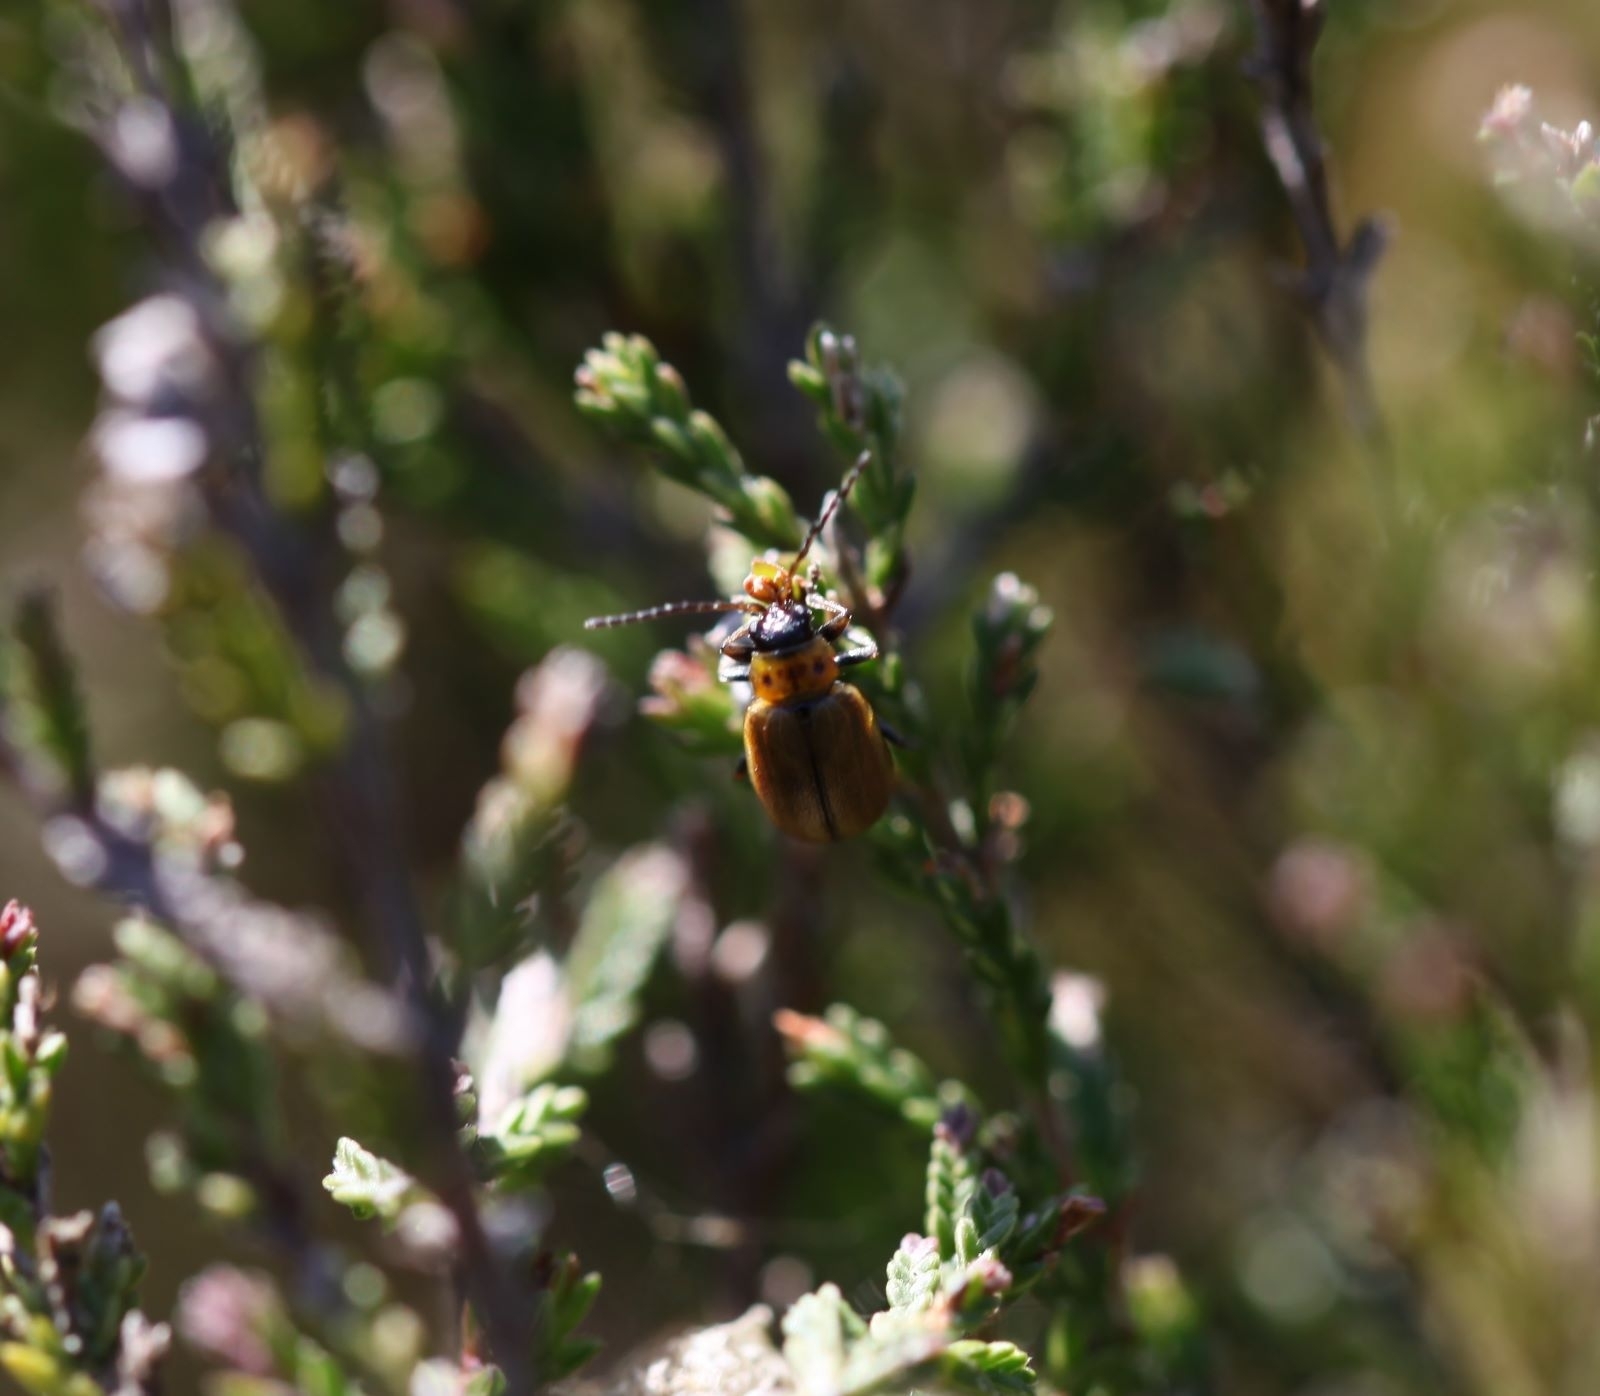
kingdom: Animalia
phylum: Arthropoda
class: Insecta
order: Coleoptera
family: Chrysomelidae
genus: Lochmaea
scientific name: Lochmaea suturalis
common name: Heather beetle
